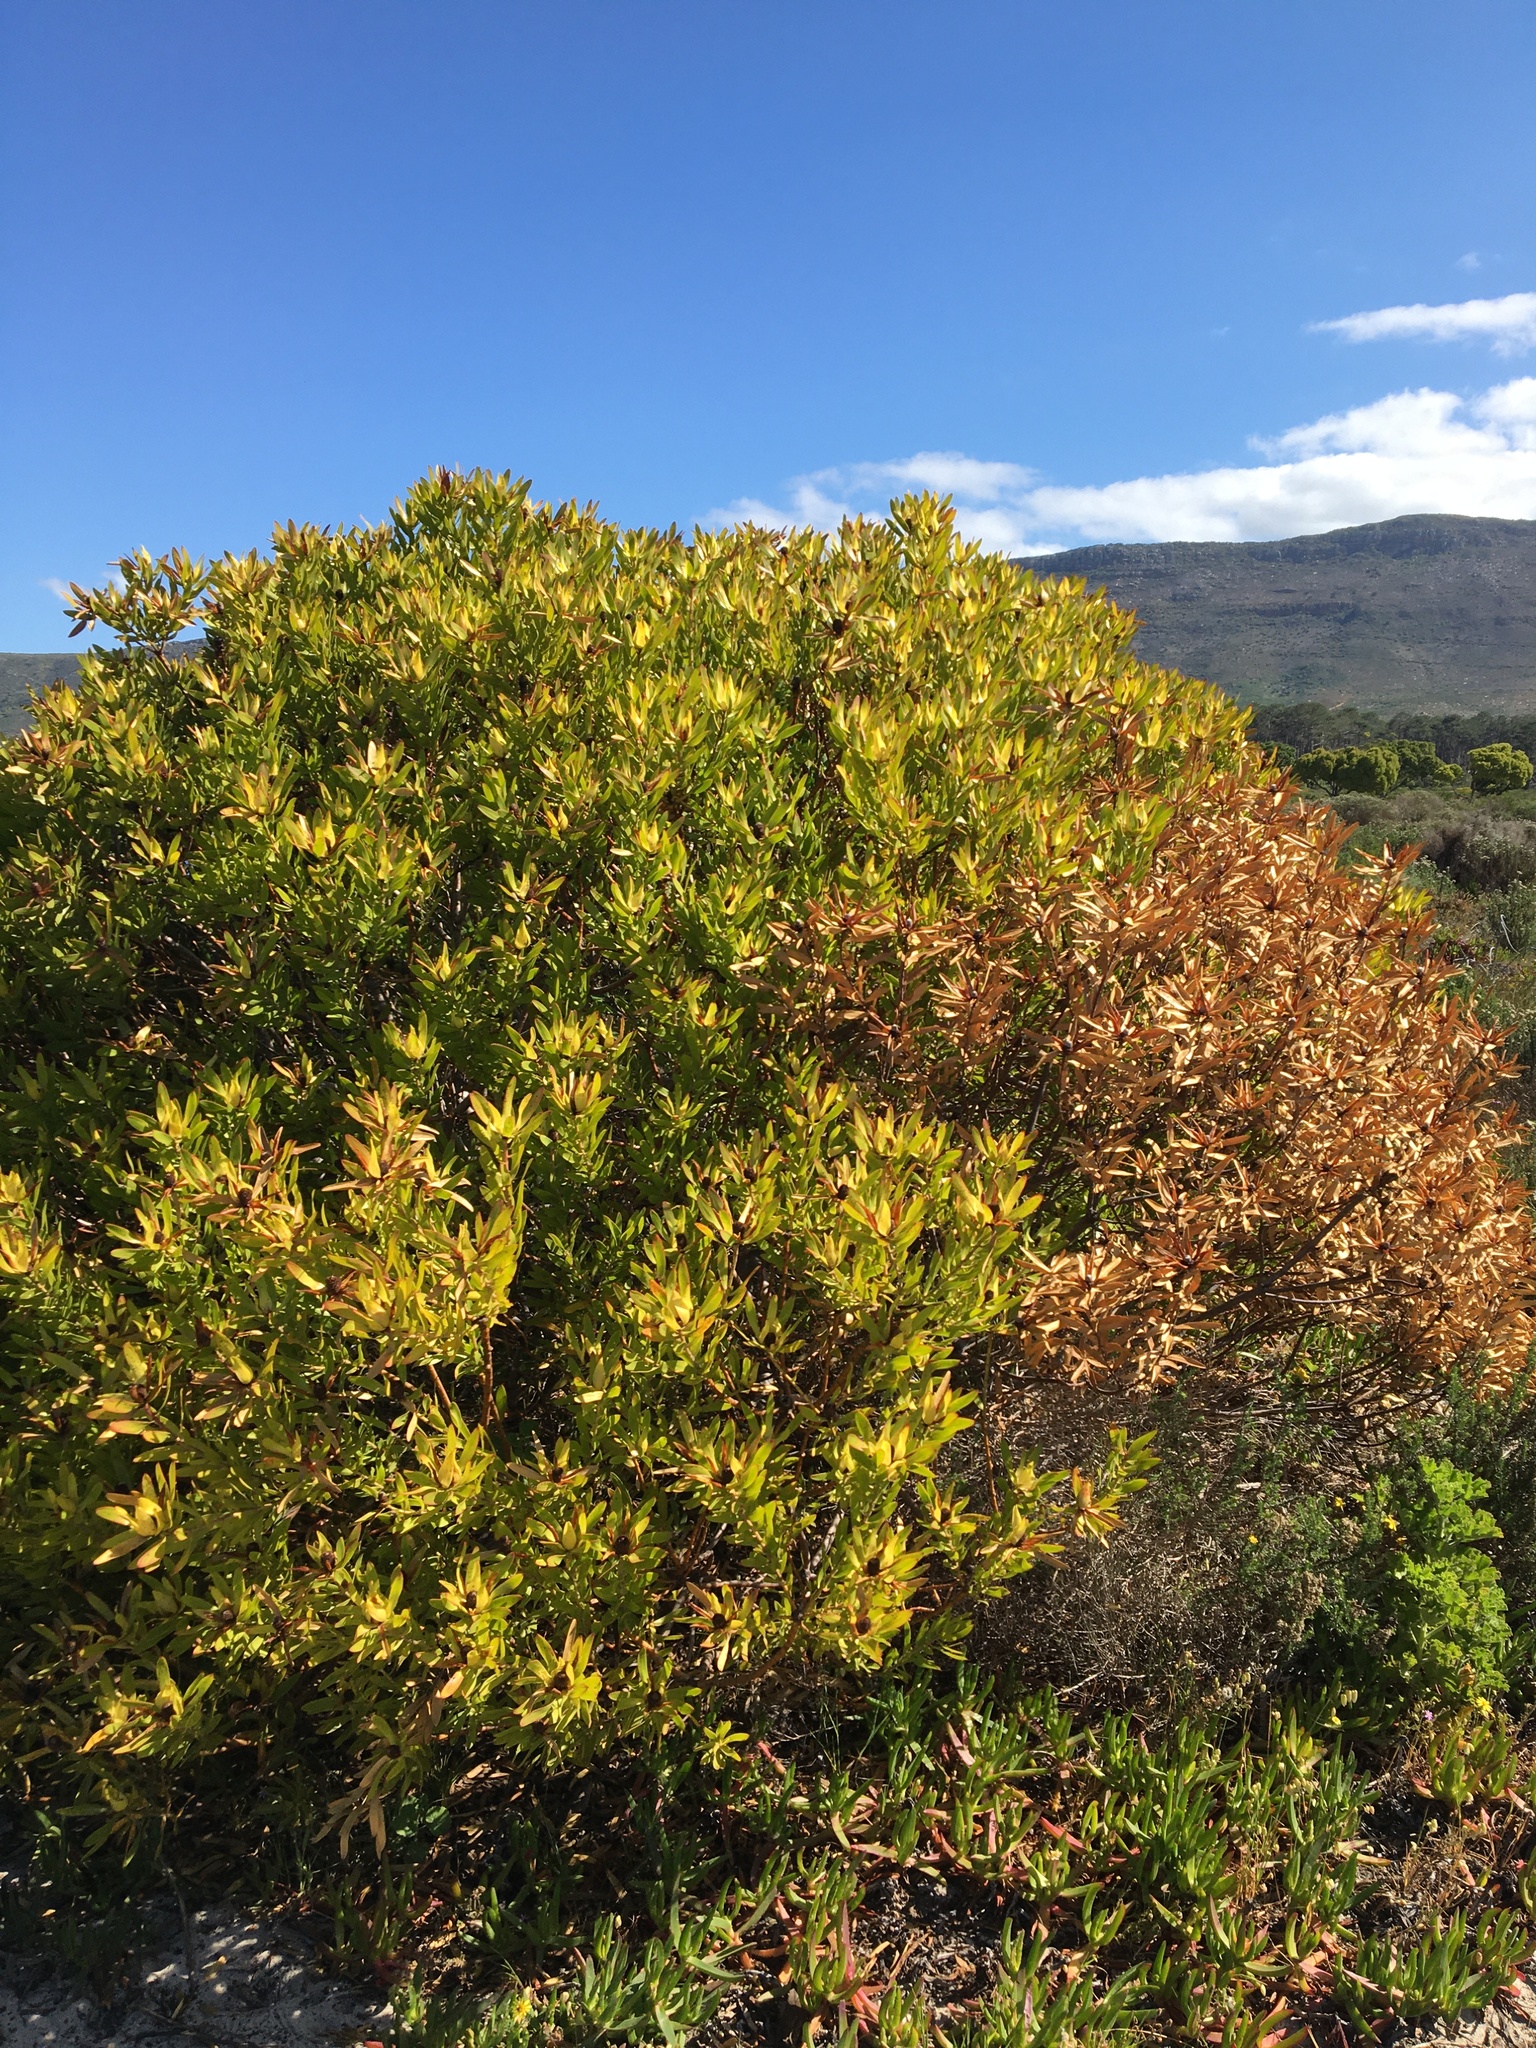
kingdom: Plantae
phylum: Tracheophyta
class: Magnoliopsida
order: Proteales
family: Proteaceae
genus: Leucadendron
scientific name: Leucadendron laureolum
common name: Golden sunshinebush
